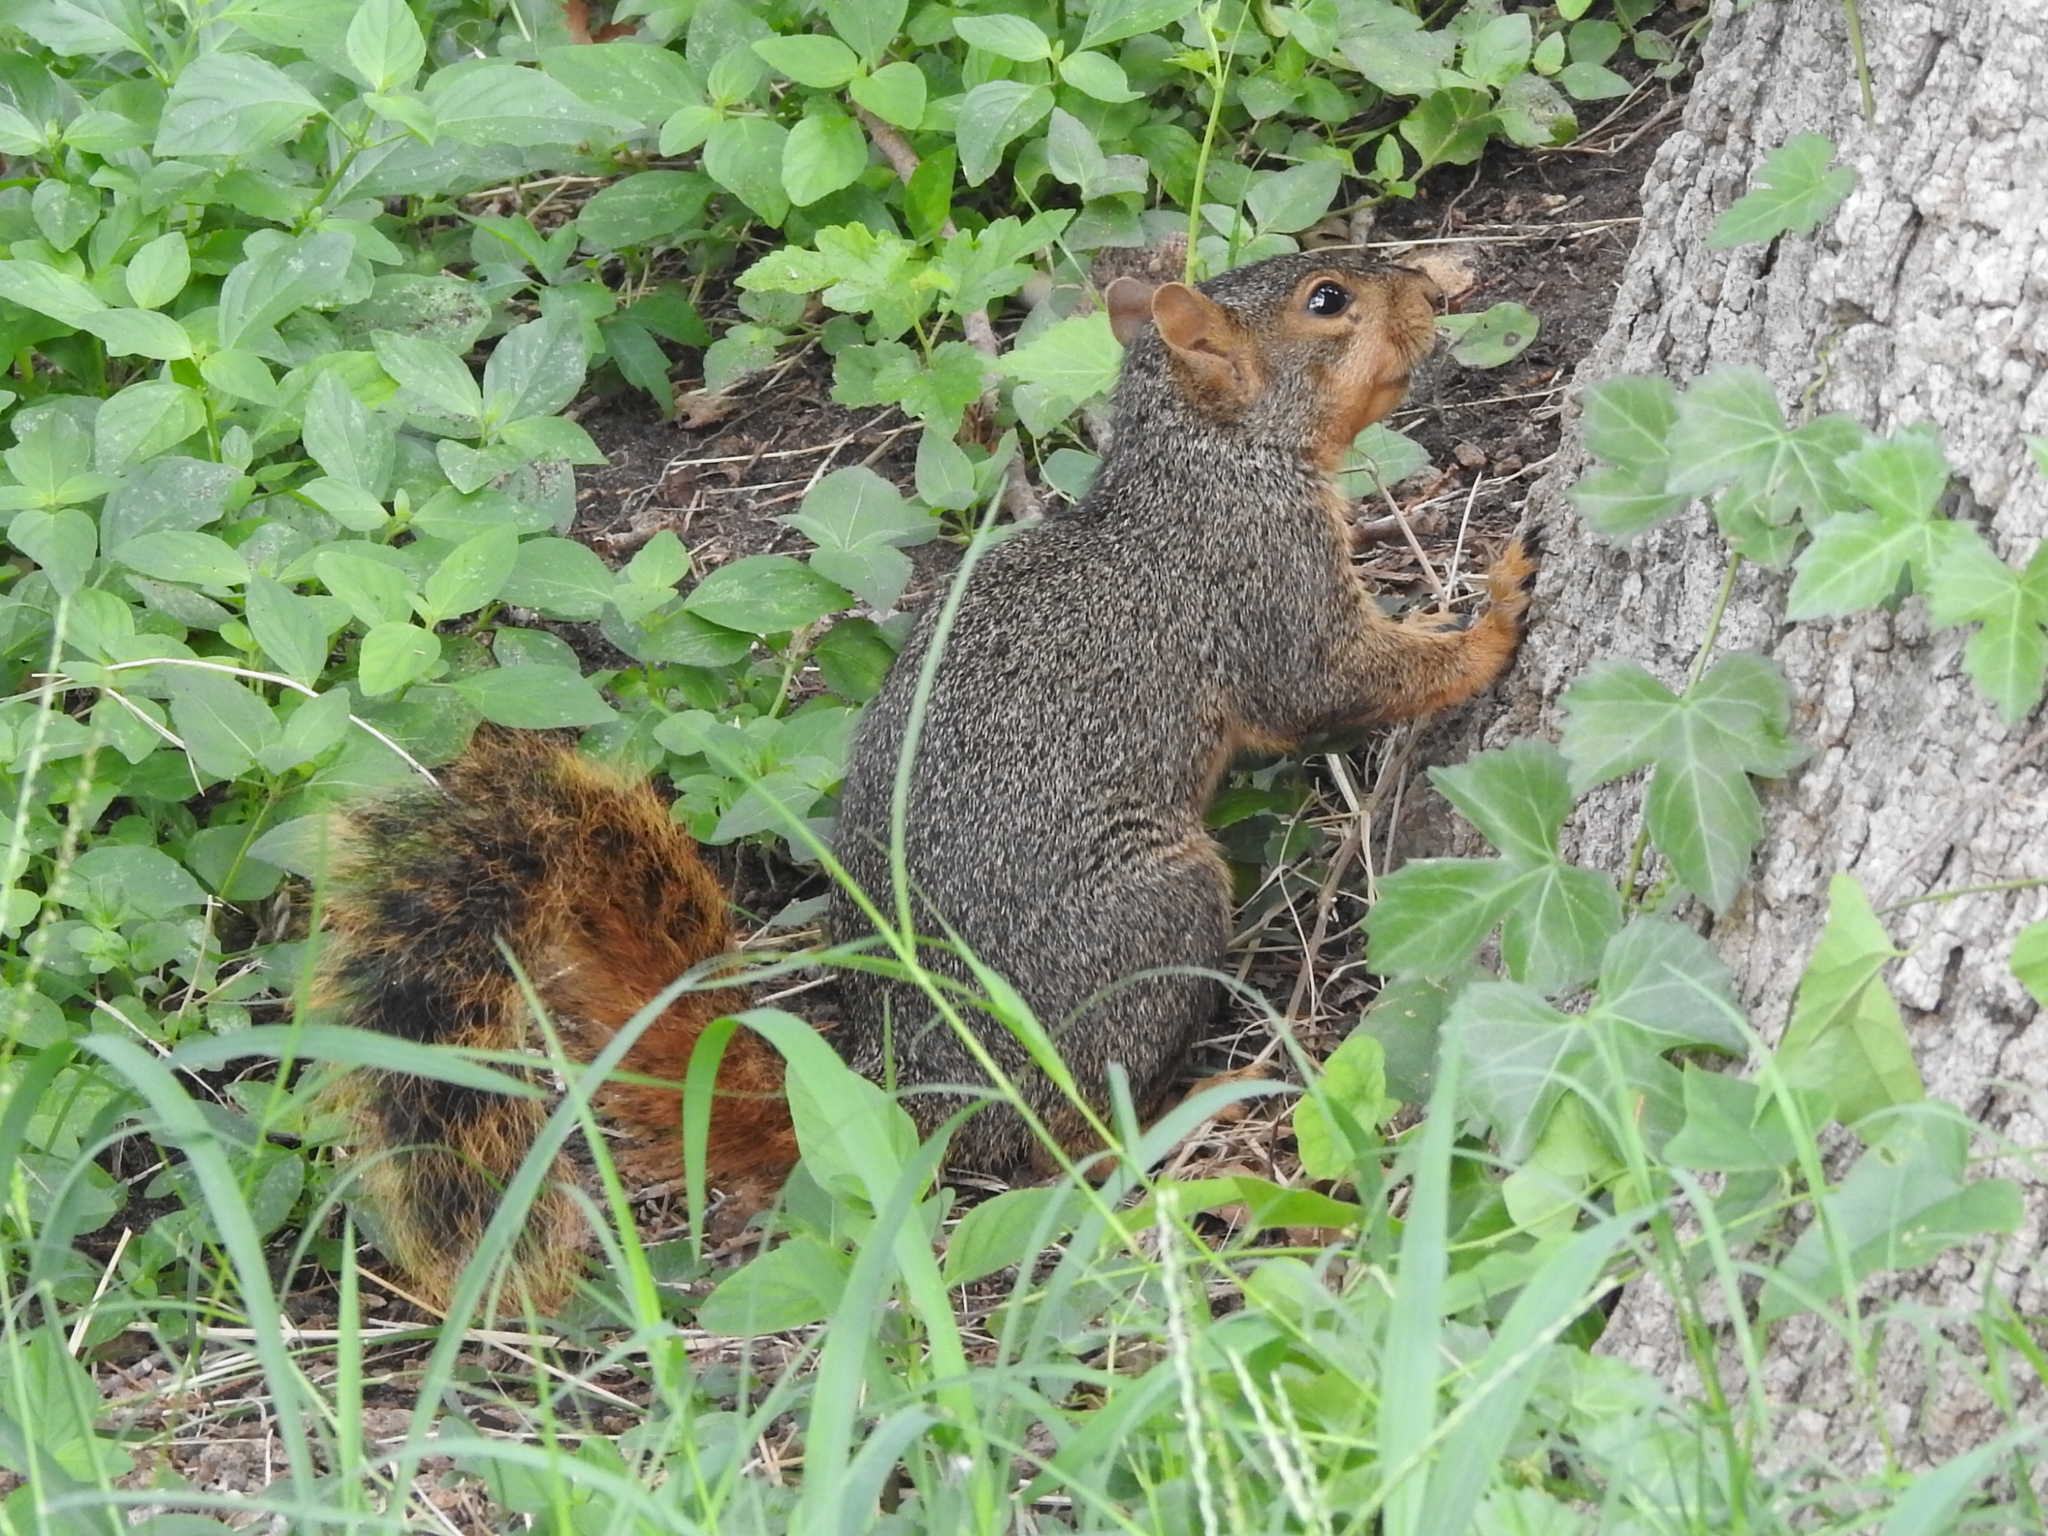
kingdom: Animalia
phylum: Chordata
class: Mammalia
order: Rodentia
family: Sciuridae
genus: Sciurus
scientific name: Sciurus niger
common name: Fox squirrel
